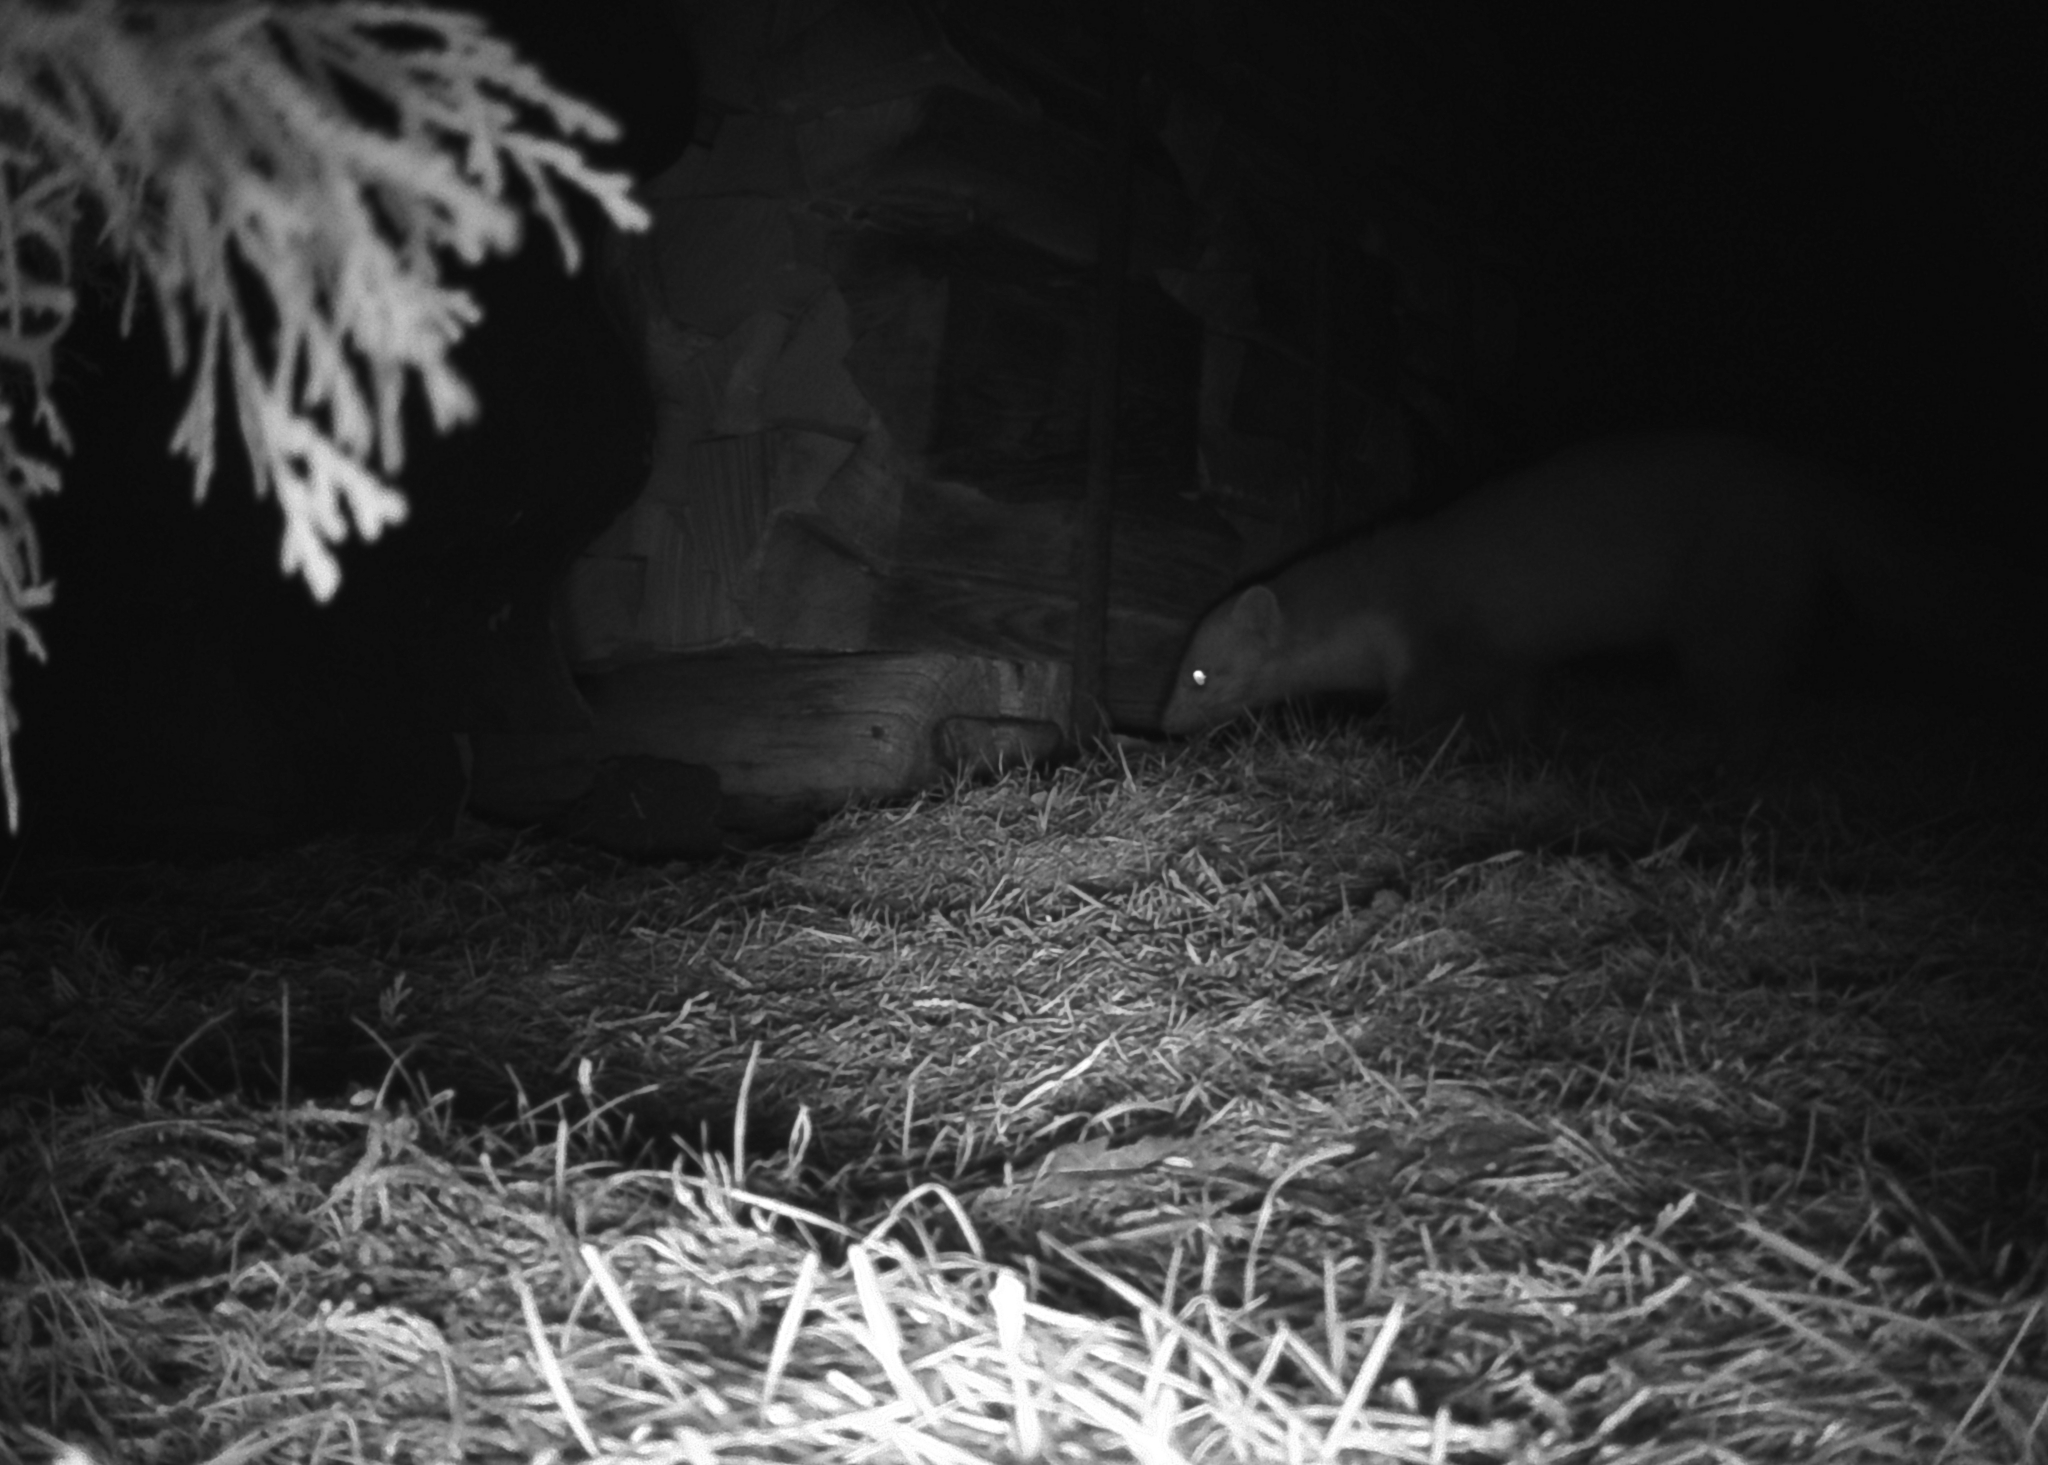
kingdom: Animalia
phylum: Chordata
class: Mammalia
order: Carnivora
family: Mustelidae
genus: Martes
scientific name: Martes foina
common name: Beech marten
